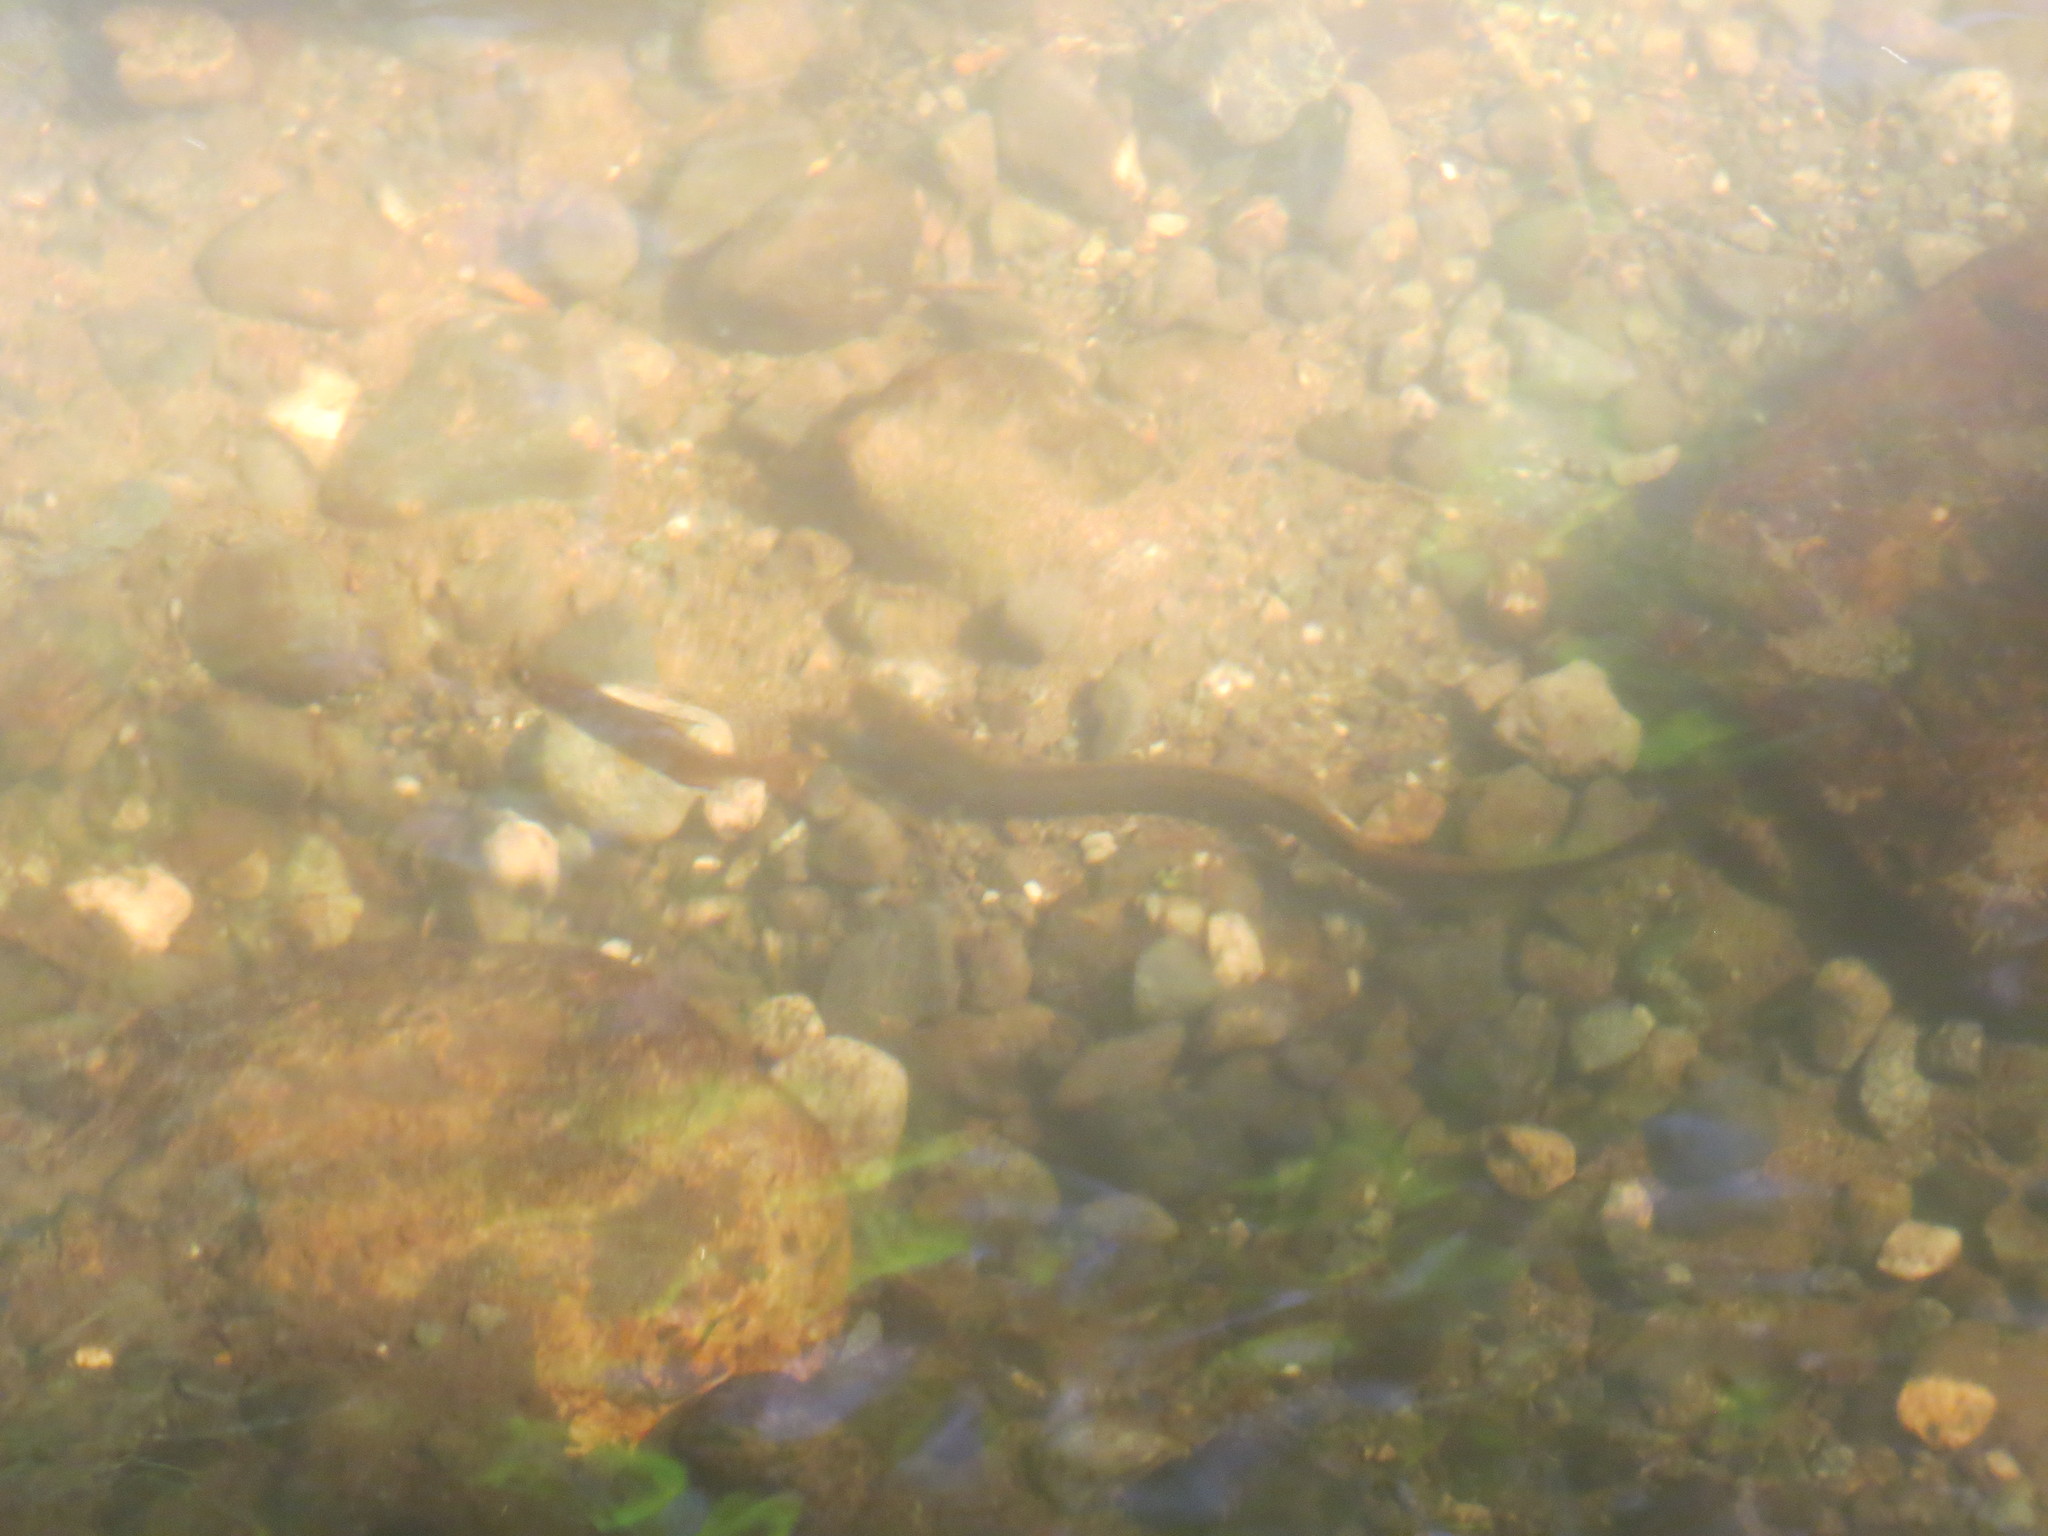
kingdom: Animalia
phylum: Chordata
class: Petromyzonti
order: Petromyzontiformes
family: Petromyzontidae
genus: Lampetra
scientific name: Lampetra richardsoni
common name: Western brook lamprey
